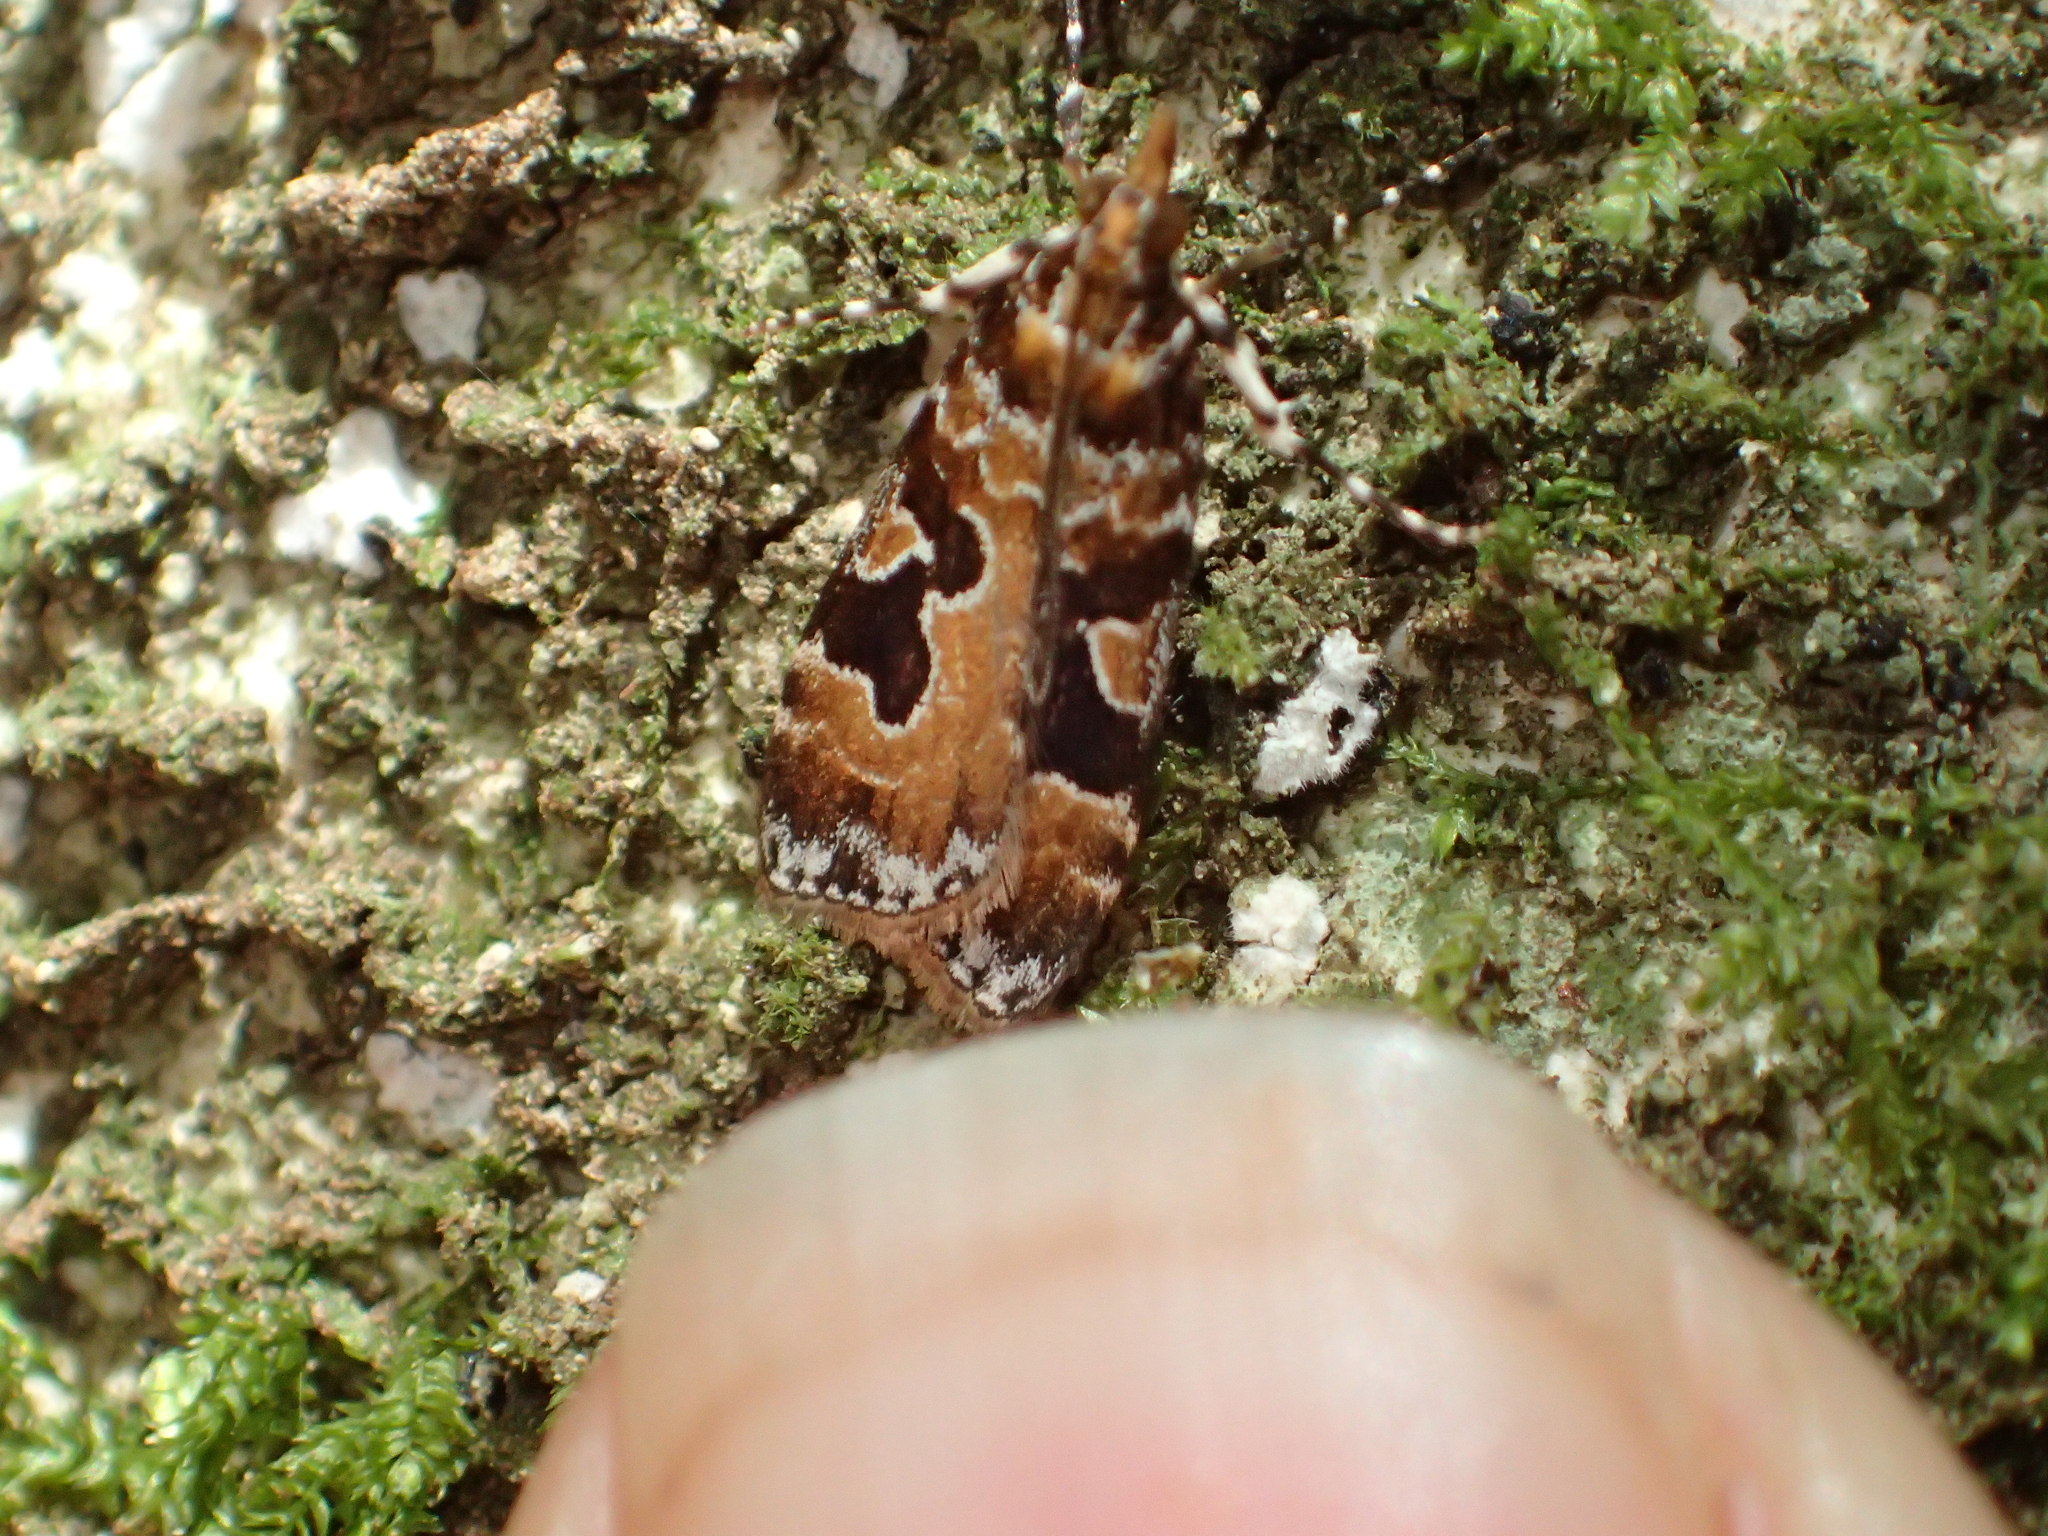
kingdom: Animalia
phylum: Arthropoda
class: Insecta
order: Lepidoptera
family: Crambidae
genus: Scoparia
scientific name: Scoparia ustimacula
